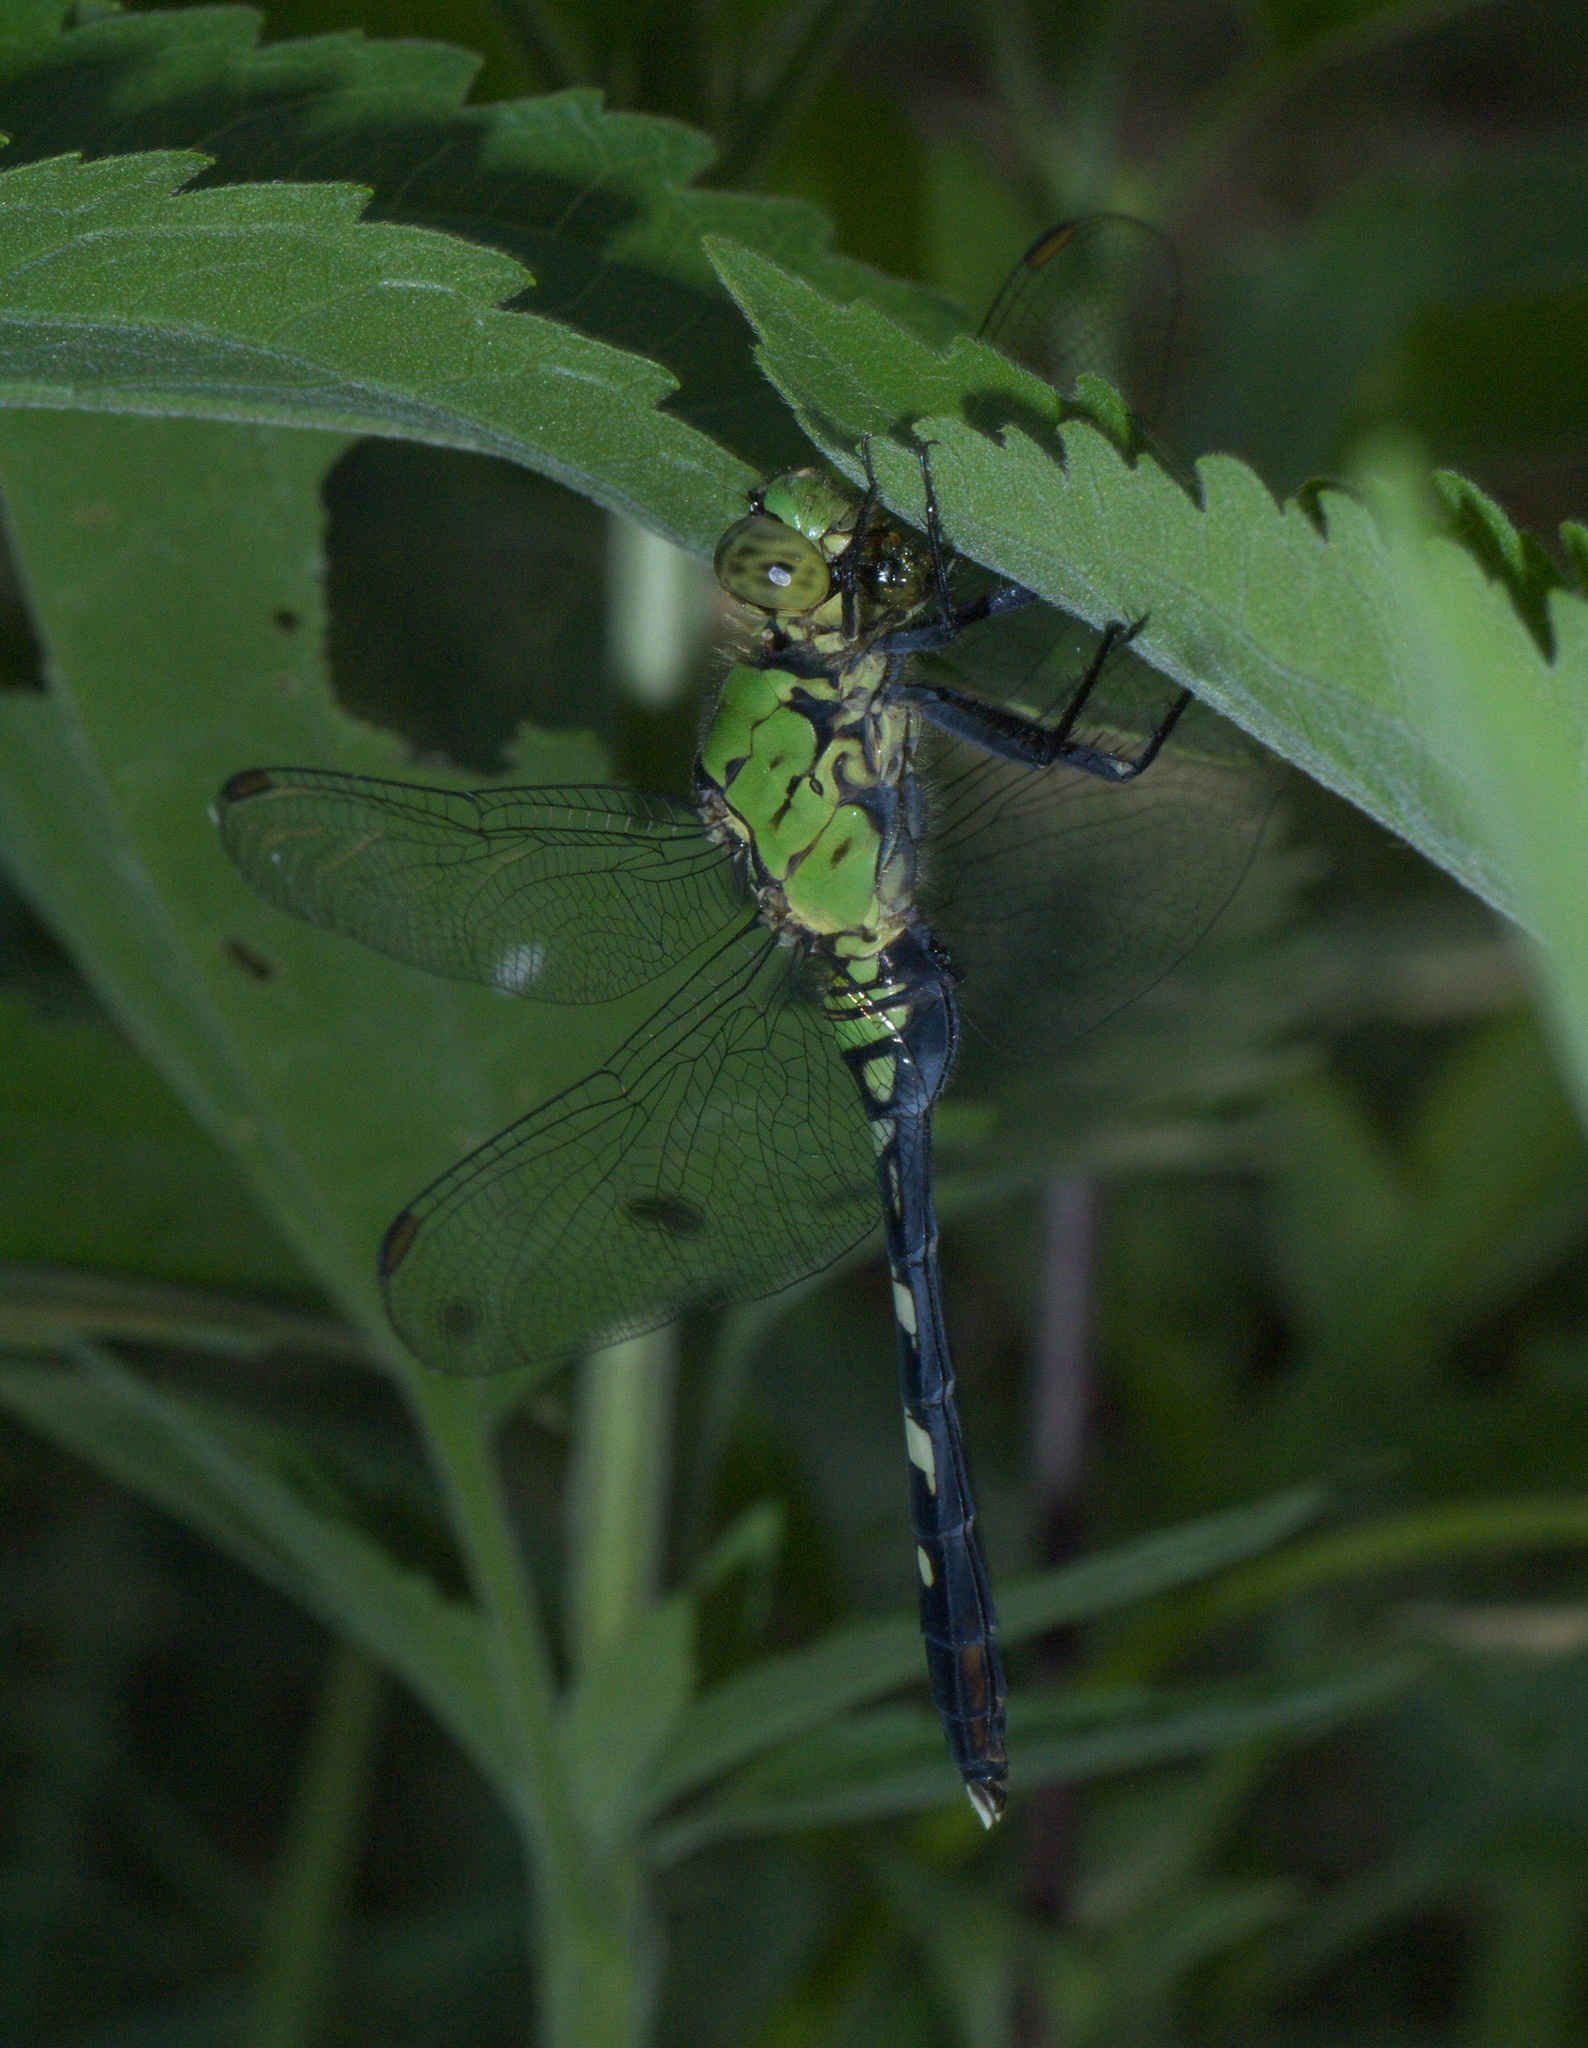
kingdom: Animalia
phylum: Arthropoda
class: Insecta
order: Odonata
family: Libellulidae
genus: Erythemis
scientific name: Erythemis simplicicollis
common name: Eastern pondhawk
